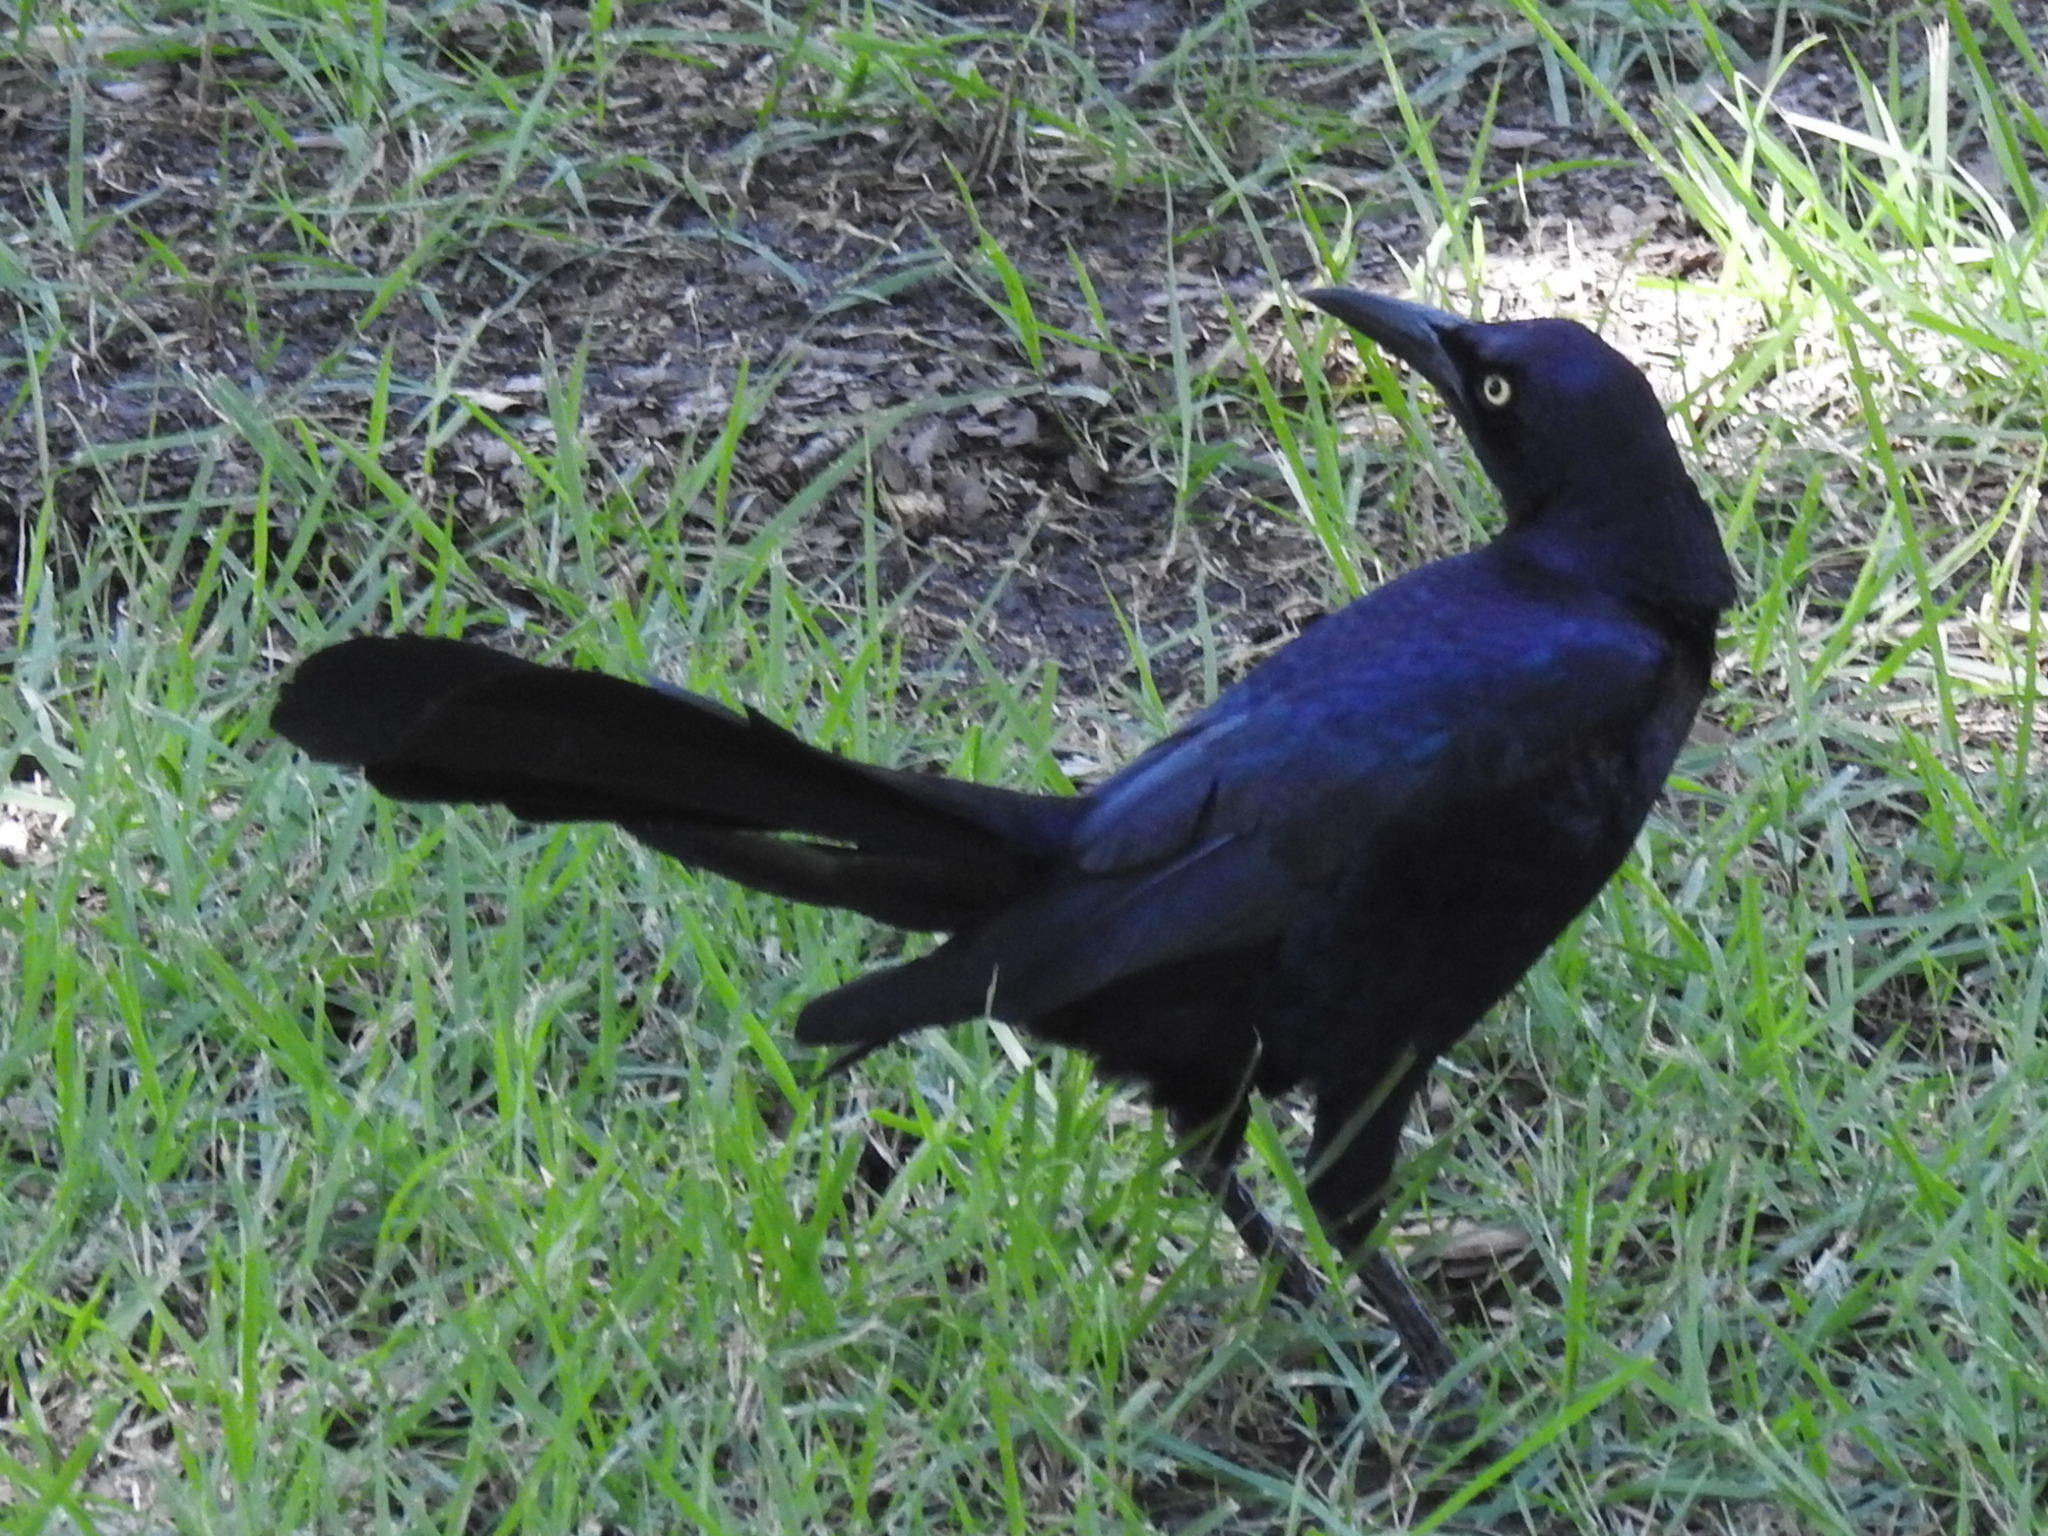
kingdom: Animalia
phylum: Chordata
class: Aves
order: Passeriformes
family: Icteridae
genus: Quiscalus
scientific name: Quiscalus mexicanus
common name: Great-tailed grackle
